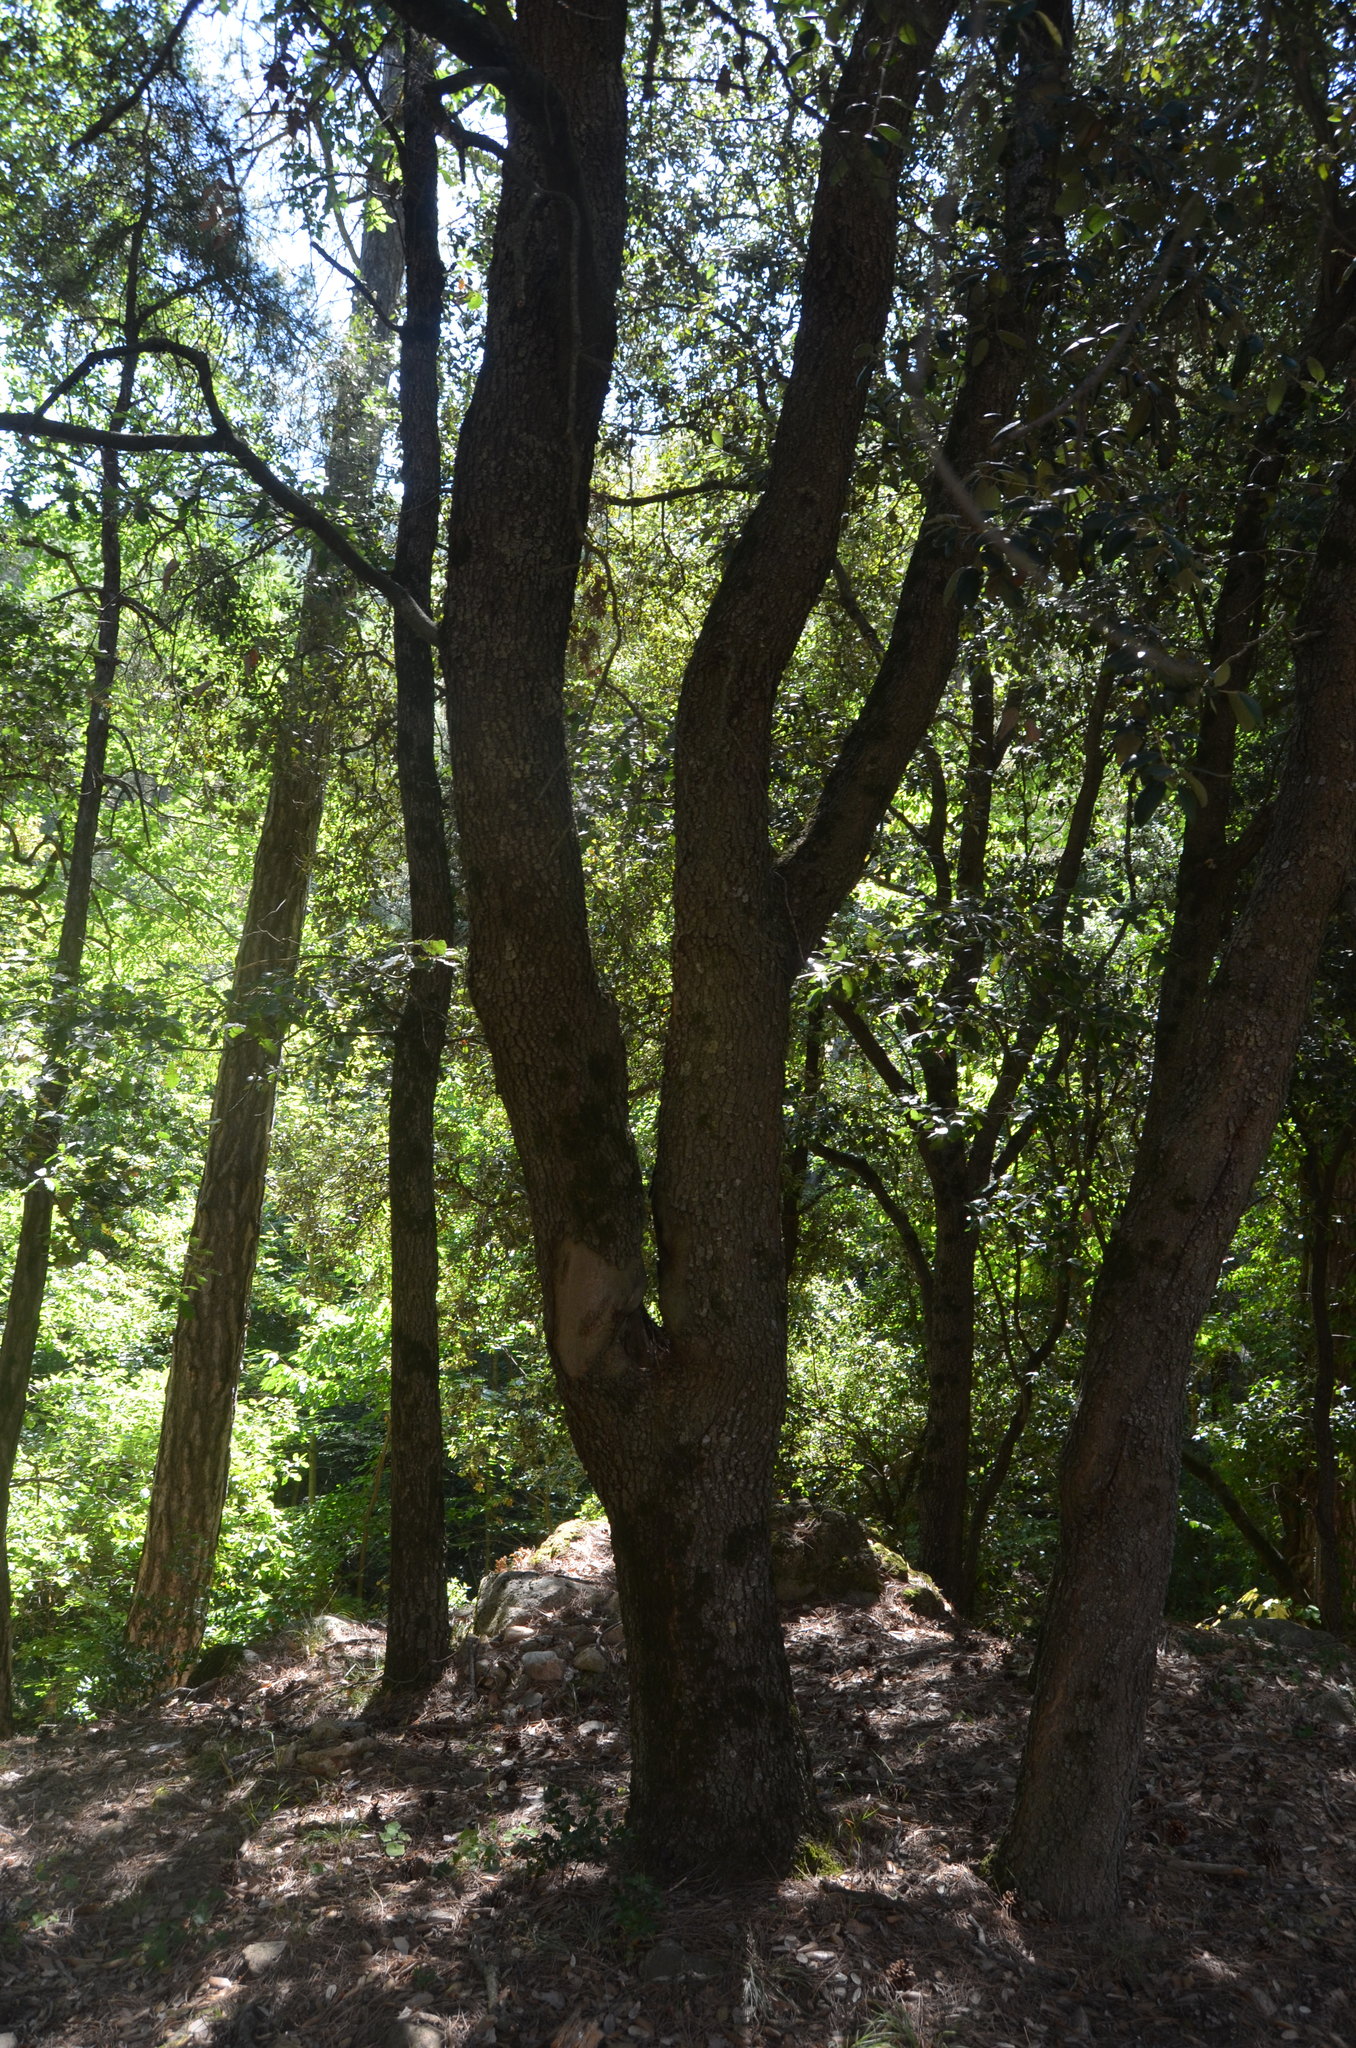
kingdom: Plantae
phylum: Tracheophyta
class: Magnoliopsida
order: Fagales
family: Fagaceae
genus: Quercus
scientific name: Quercus ilex
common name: Evergreen oak
